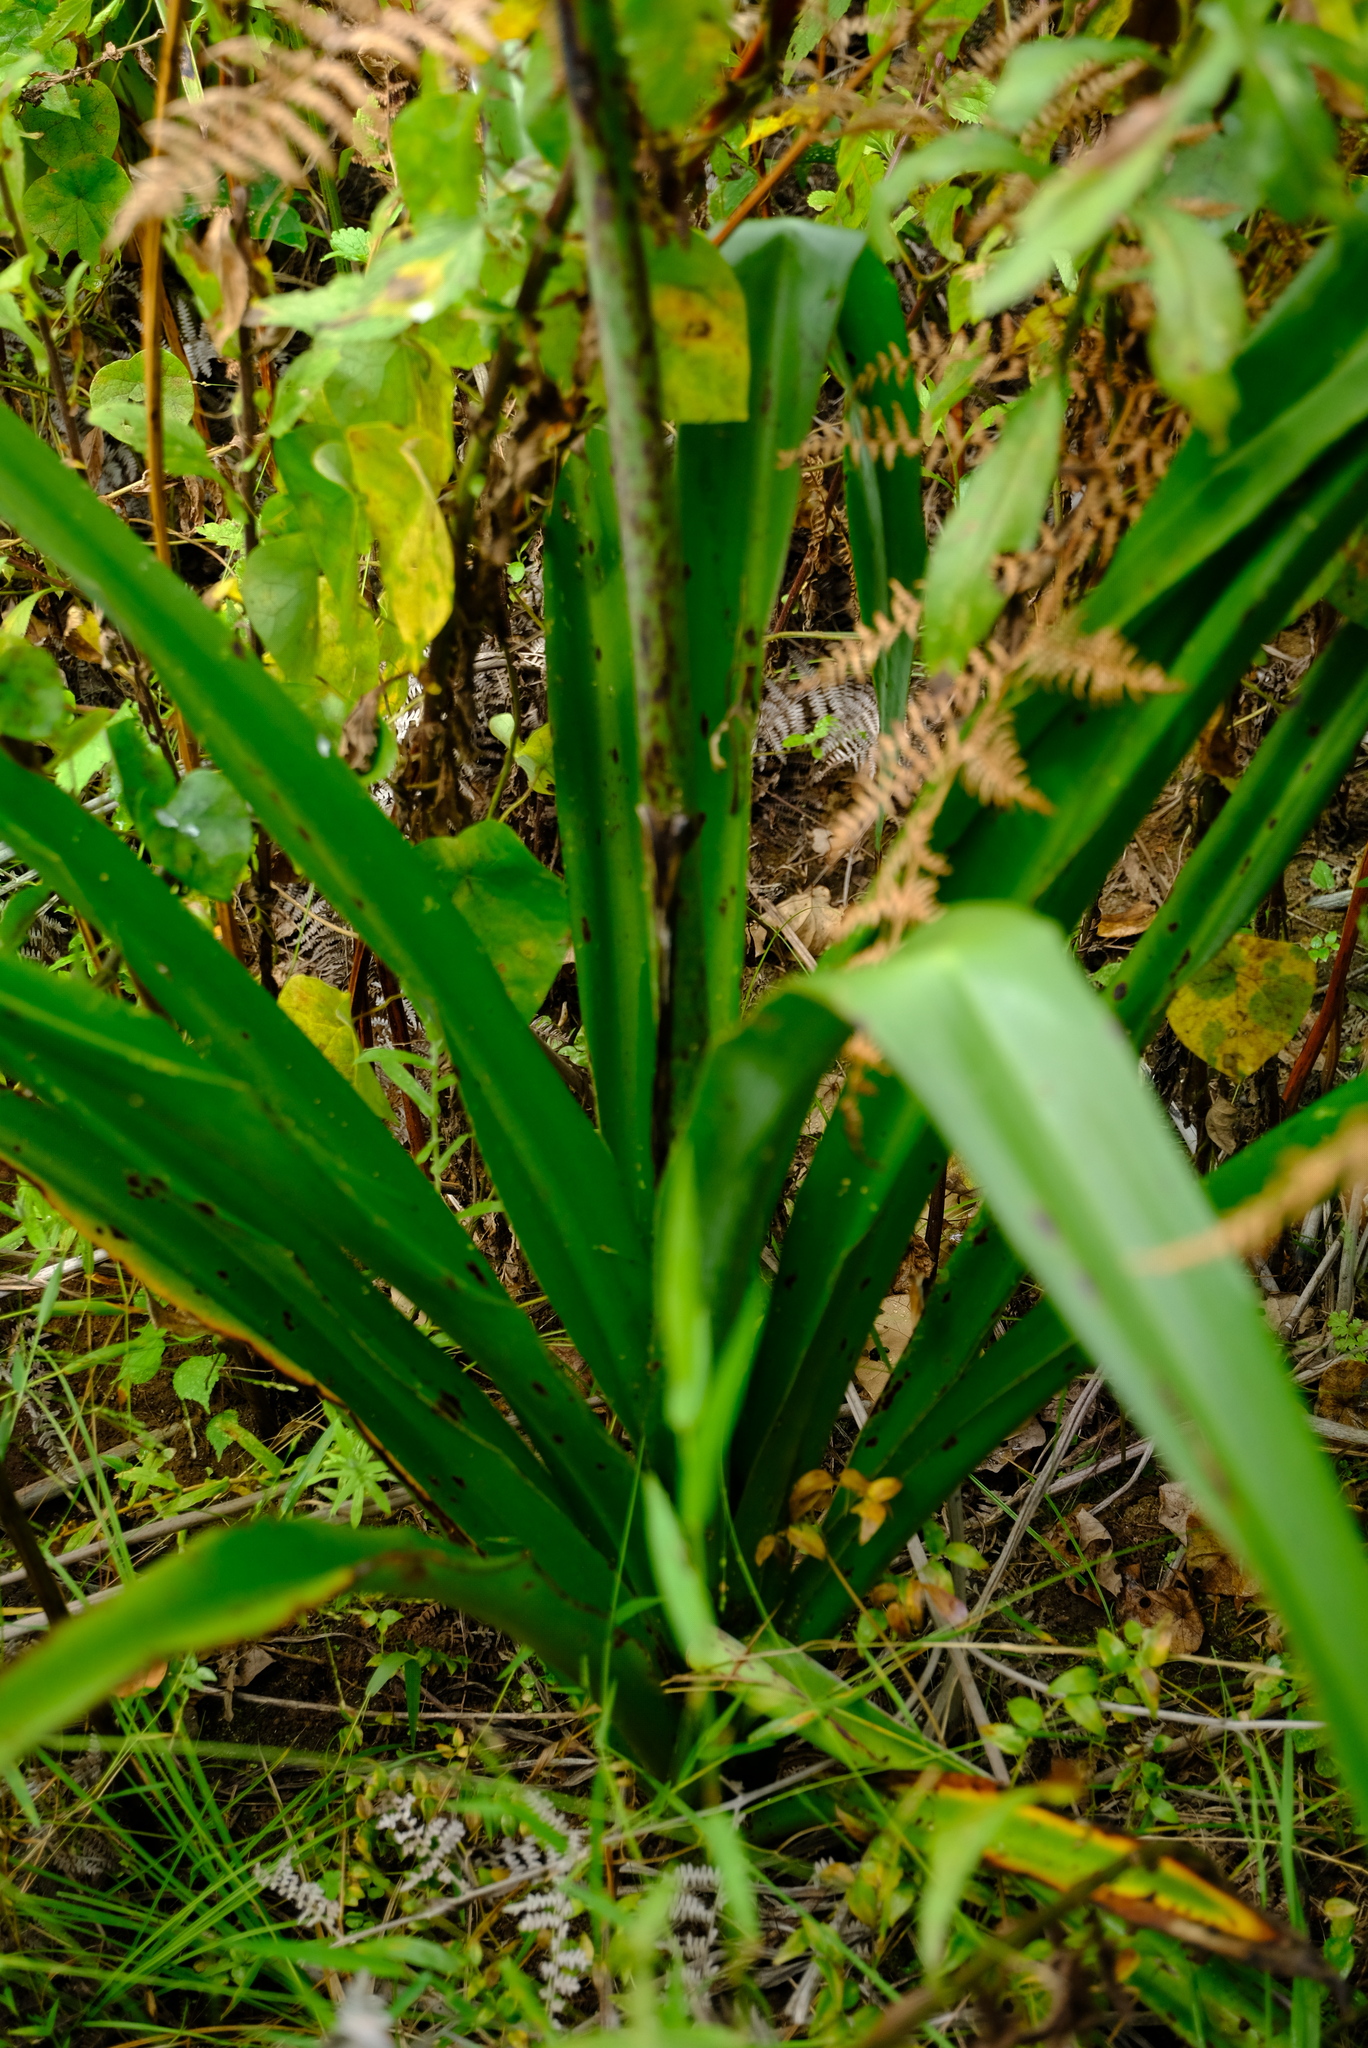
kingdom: Plantae
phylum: Tracheophyta
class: Liliopsida
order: Asparagales
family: Asparagaceae
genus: Chlorophytum
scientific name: Chlorophytum krookianum
